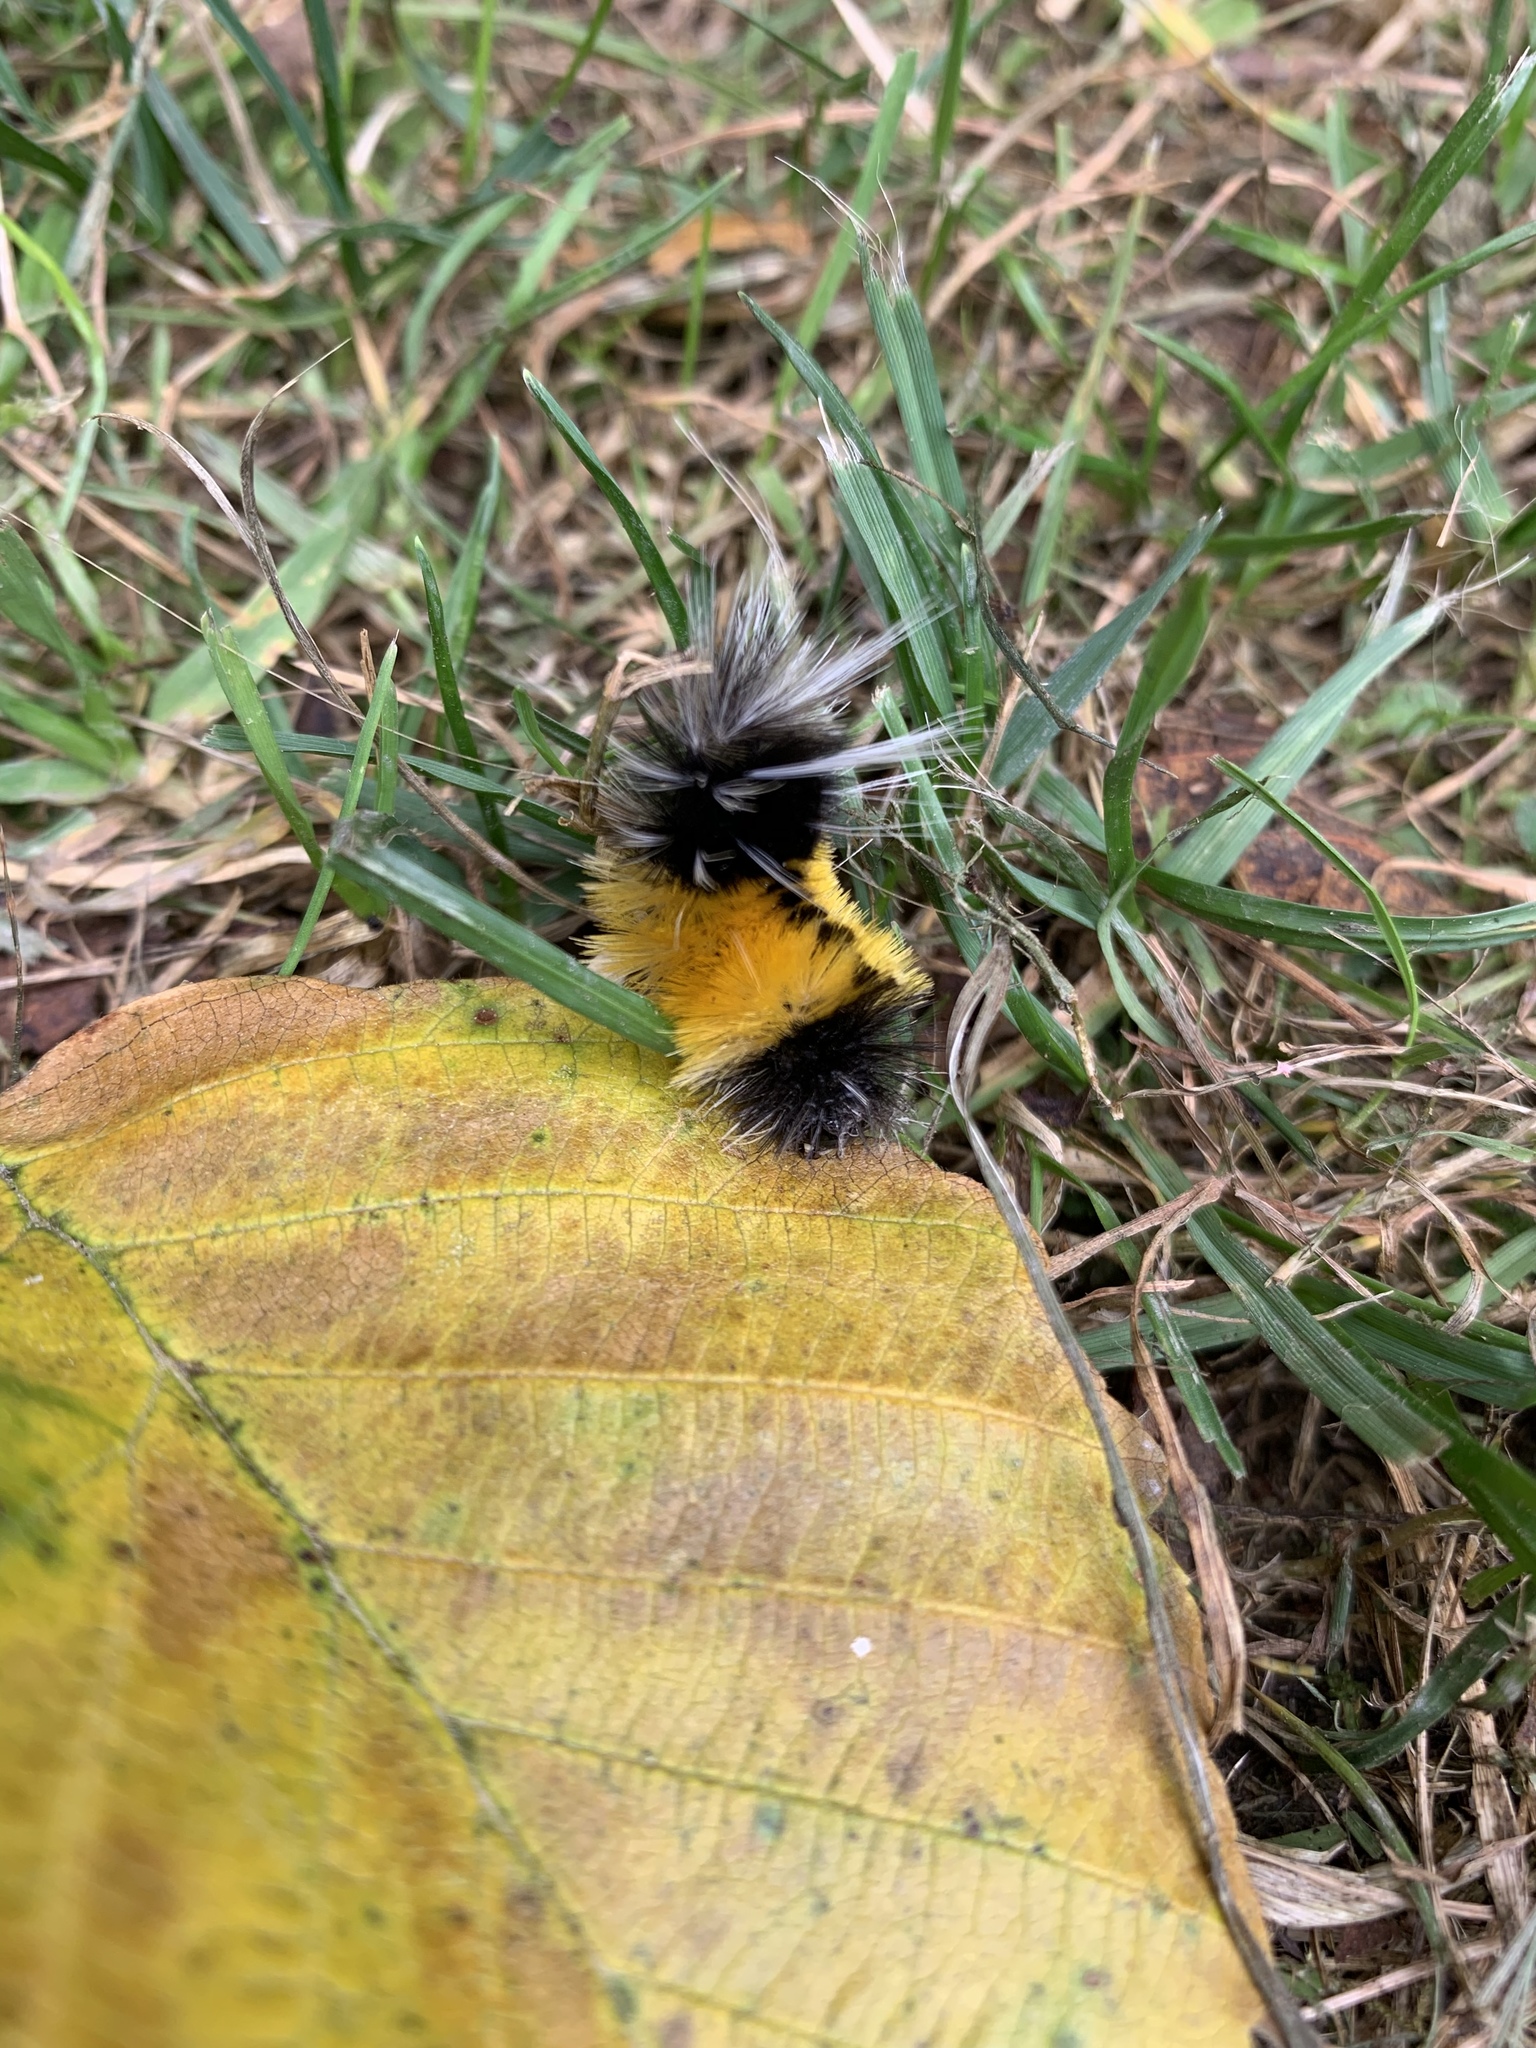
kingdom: Animalia
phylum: Arthropoda
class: Insecta
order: Lepidoptera
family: Erebidae
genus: Lophocampa
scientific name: Lophocampa maculata
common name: Spotted tussock moth
